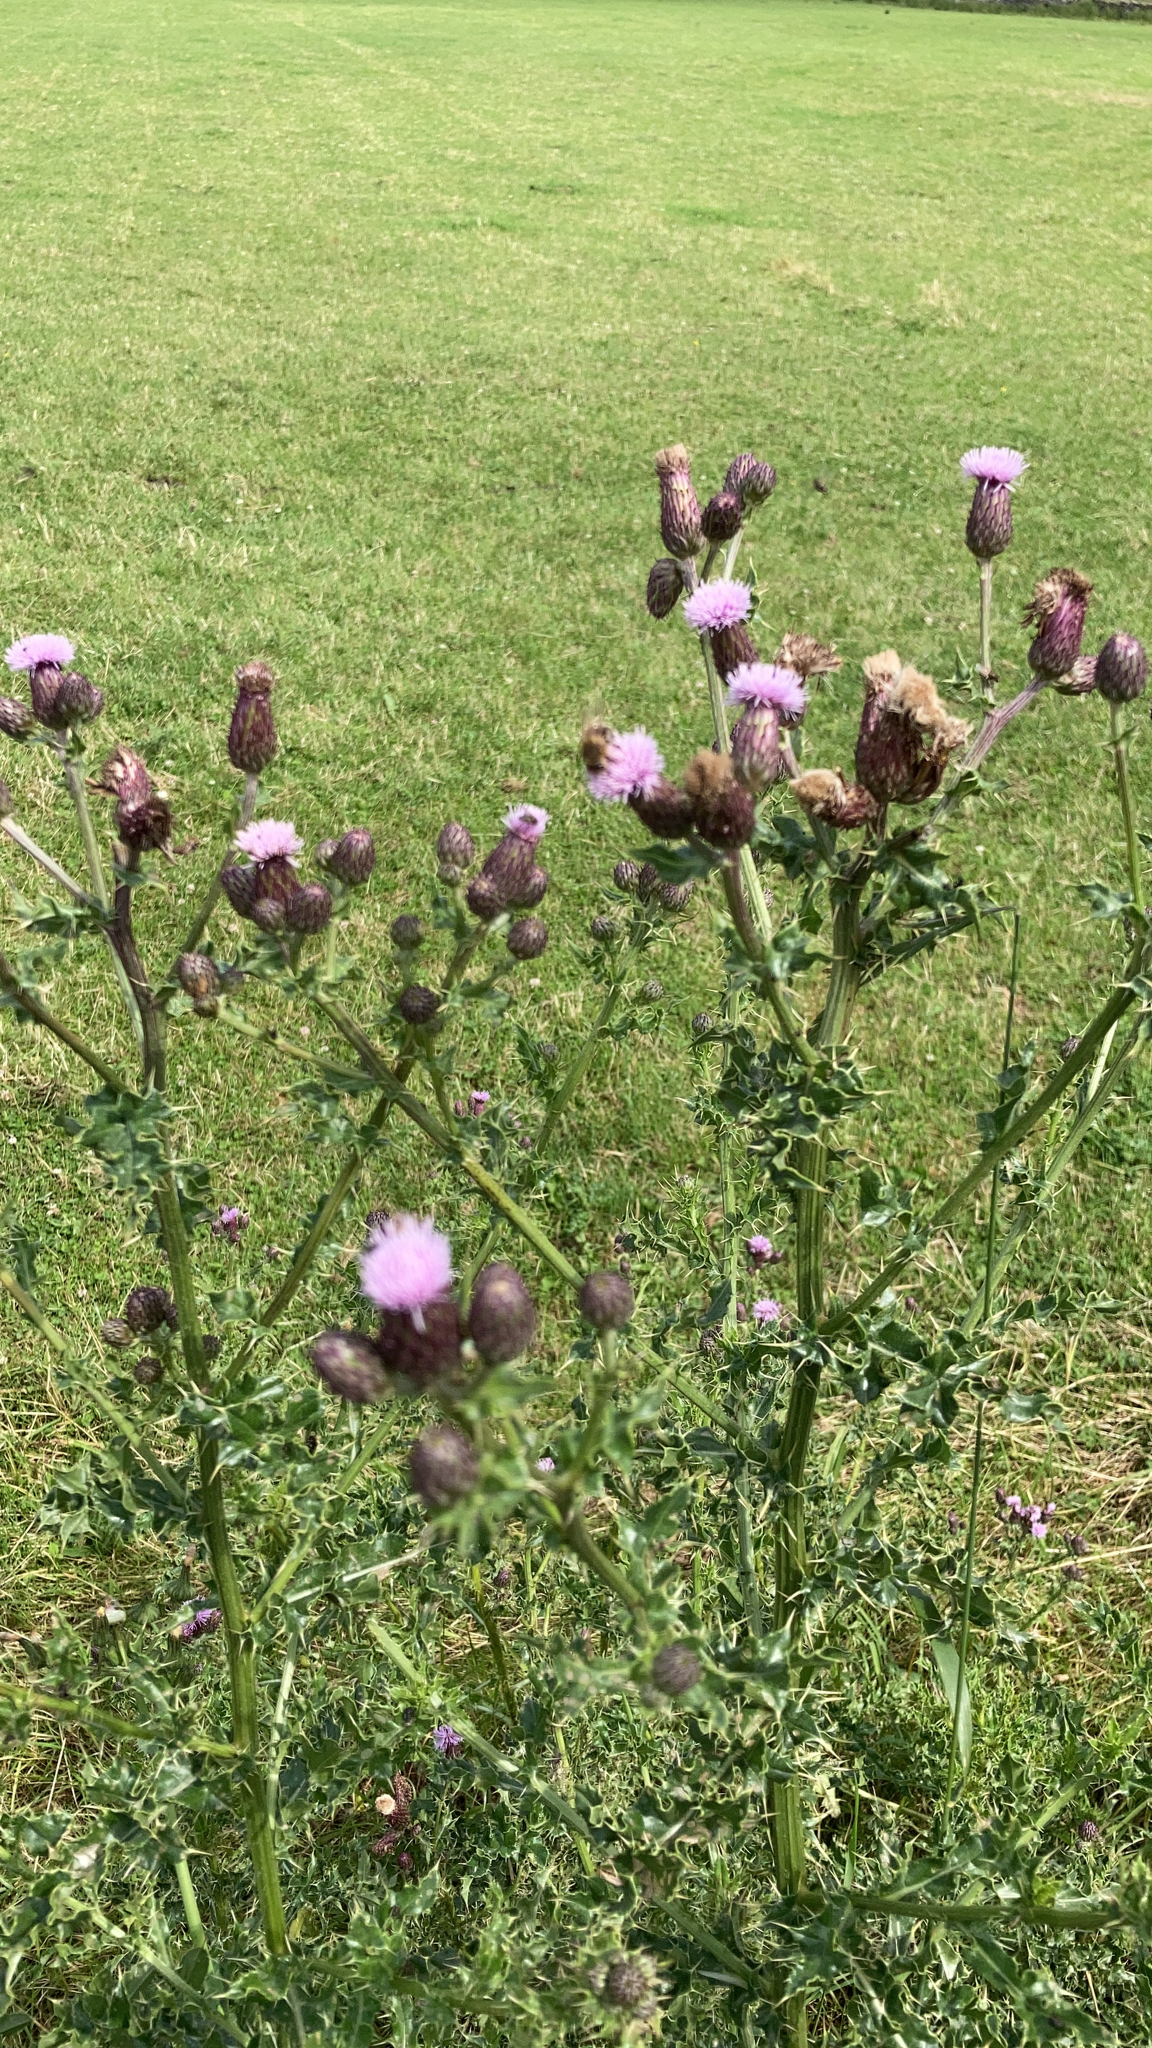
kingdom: Plantae
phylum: Tracheophyta
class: Magnoliopsida
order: Asterales
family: Asteraceae
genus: Cirsium
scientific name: Cirsium arvense
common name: Creeping thistle
